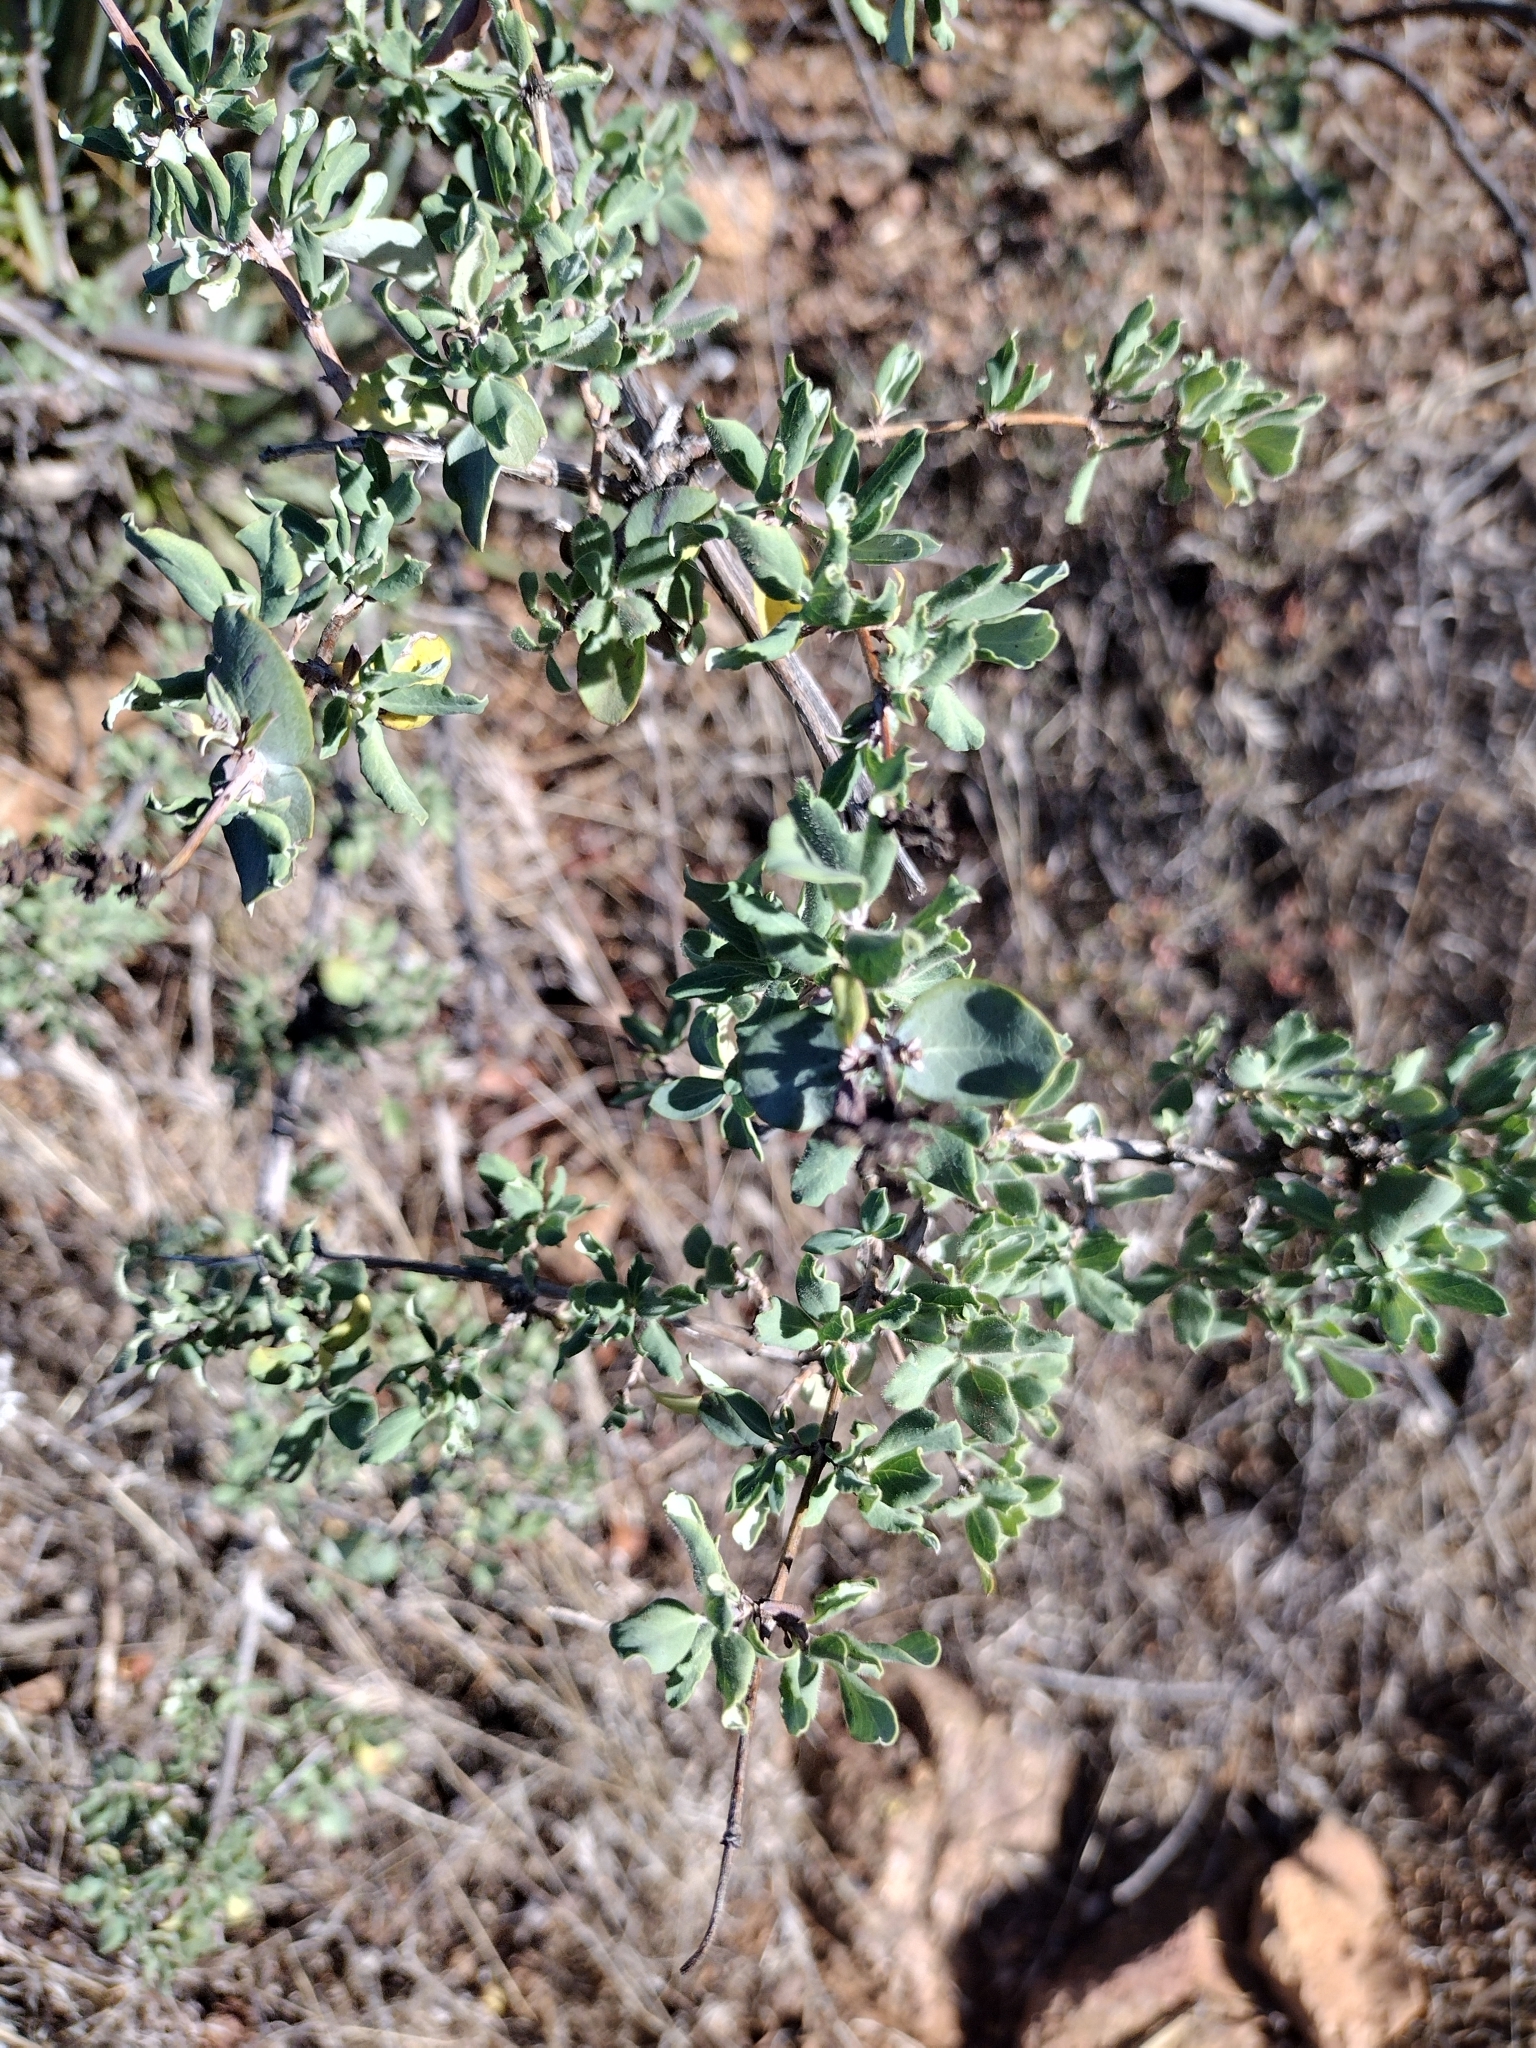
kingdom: Plantae
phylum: Tracheophyta
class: Magnoliopsida
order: Dipsacales
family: Caprifoliaceae
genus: Lonicera
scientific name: Lonicera subspicata
